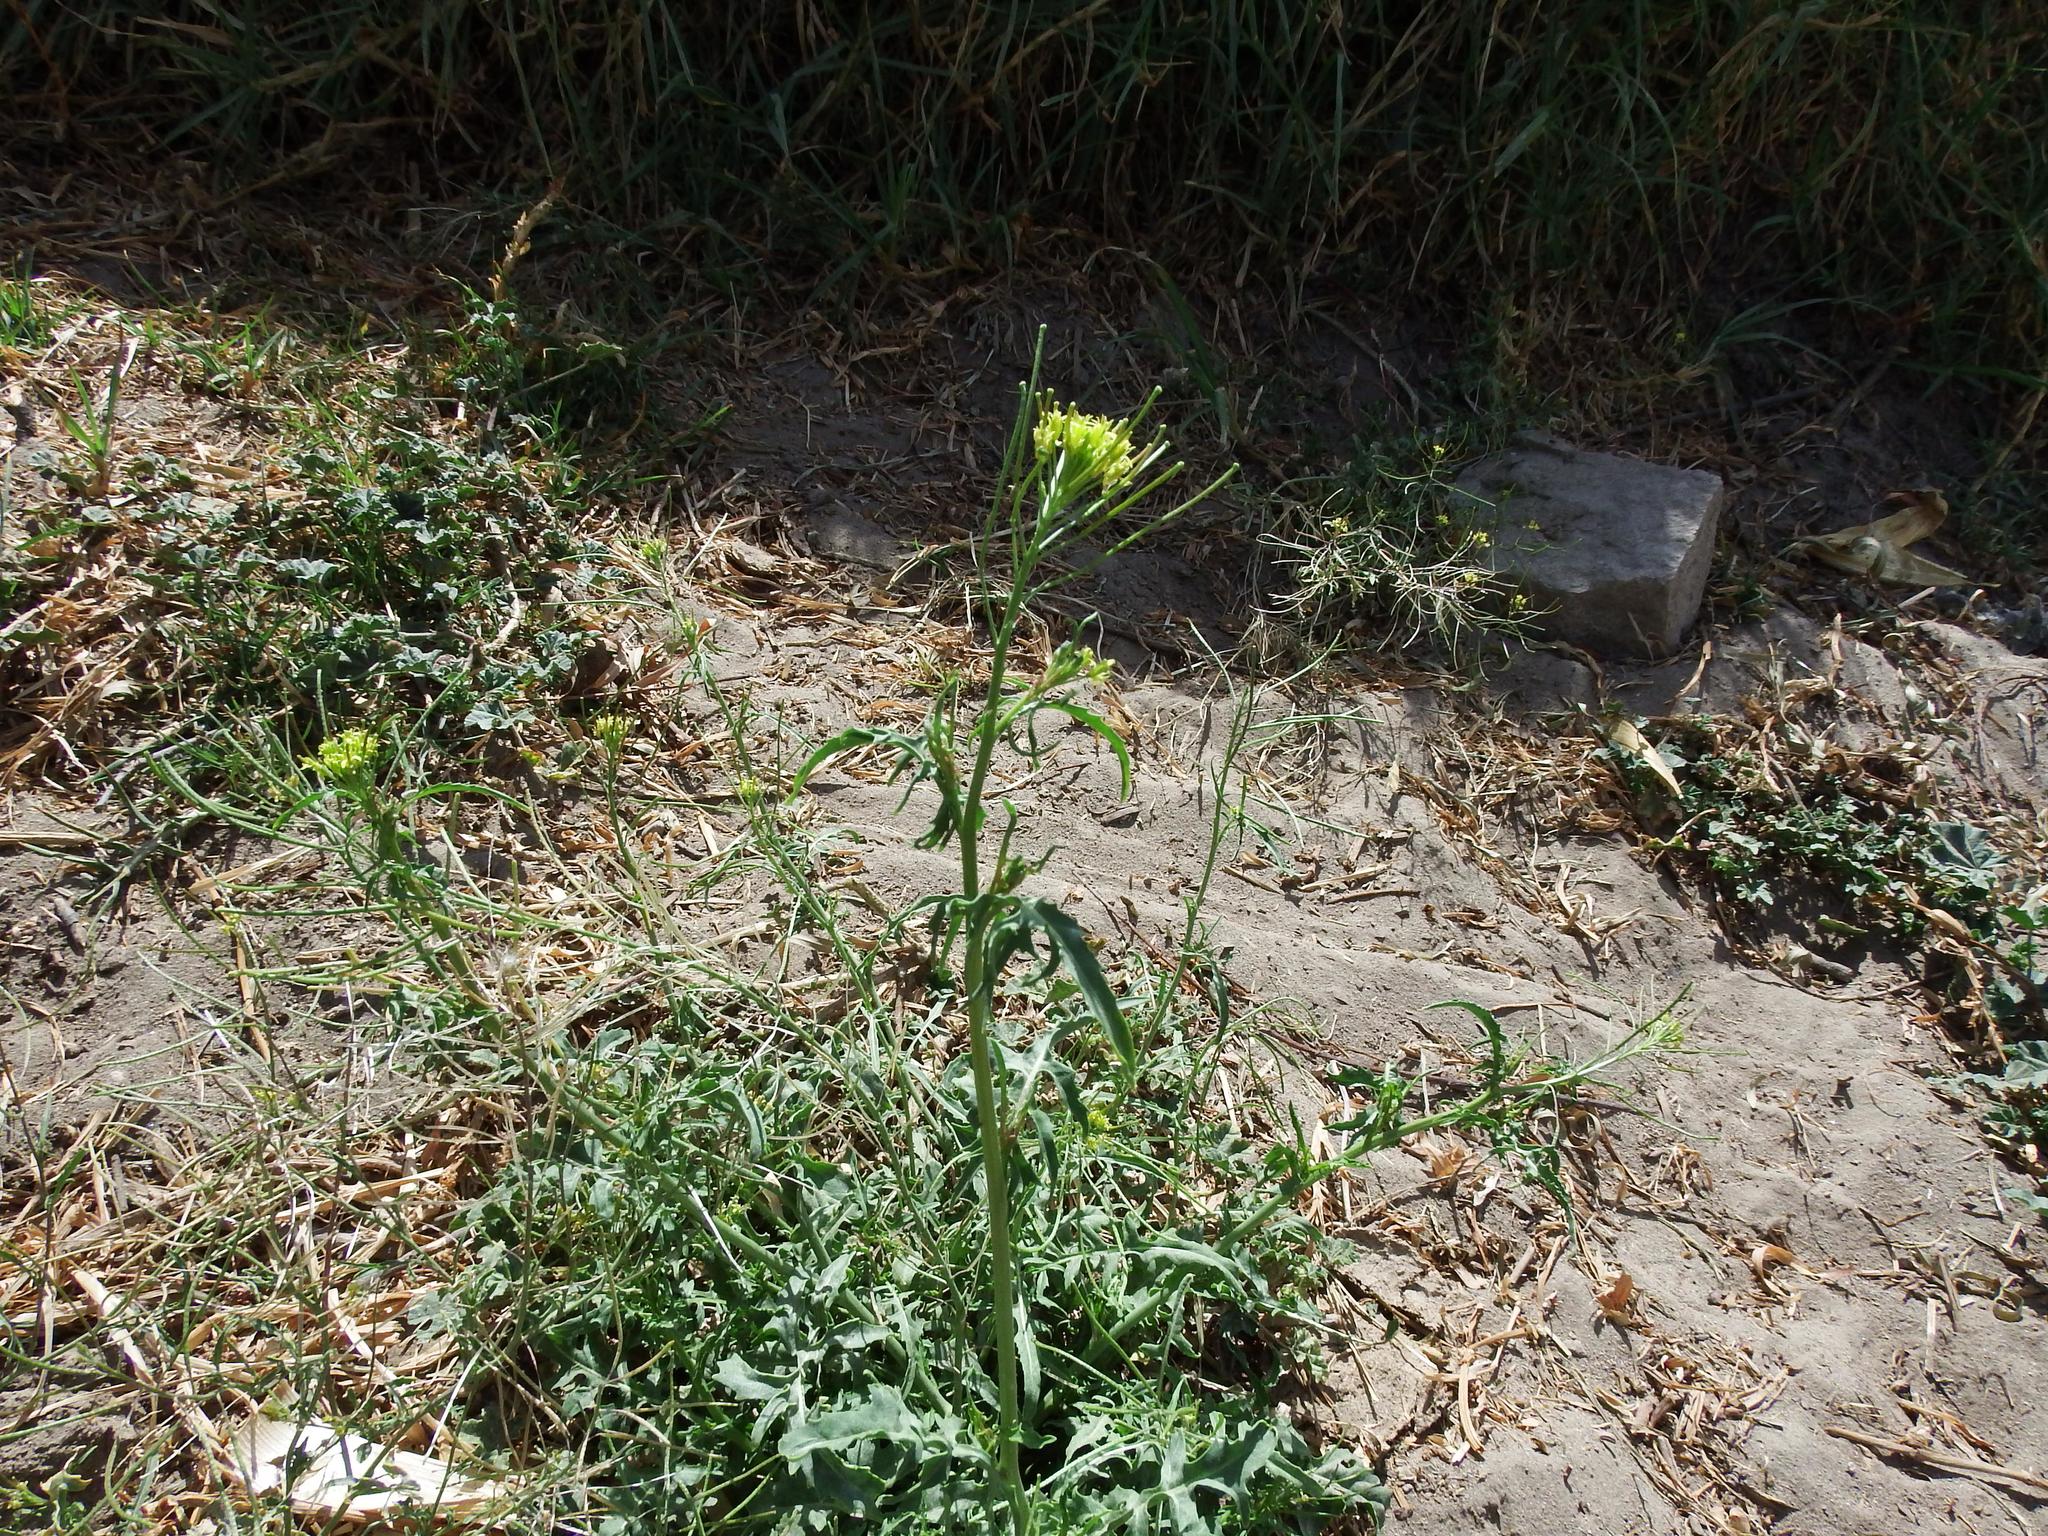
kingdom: Plantae
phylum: Tracheophyta
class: Magnoliopsida
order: Brassicales
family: Brassicaceae
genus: Sisymbrium
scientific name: Sisymbrium irio
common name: London rocket
